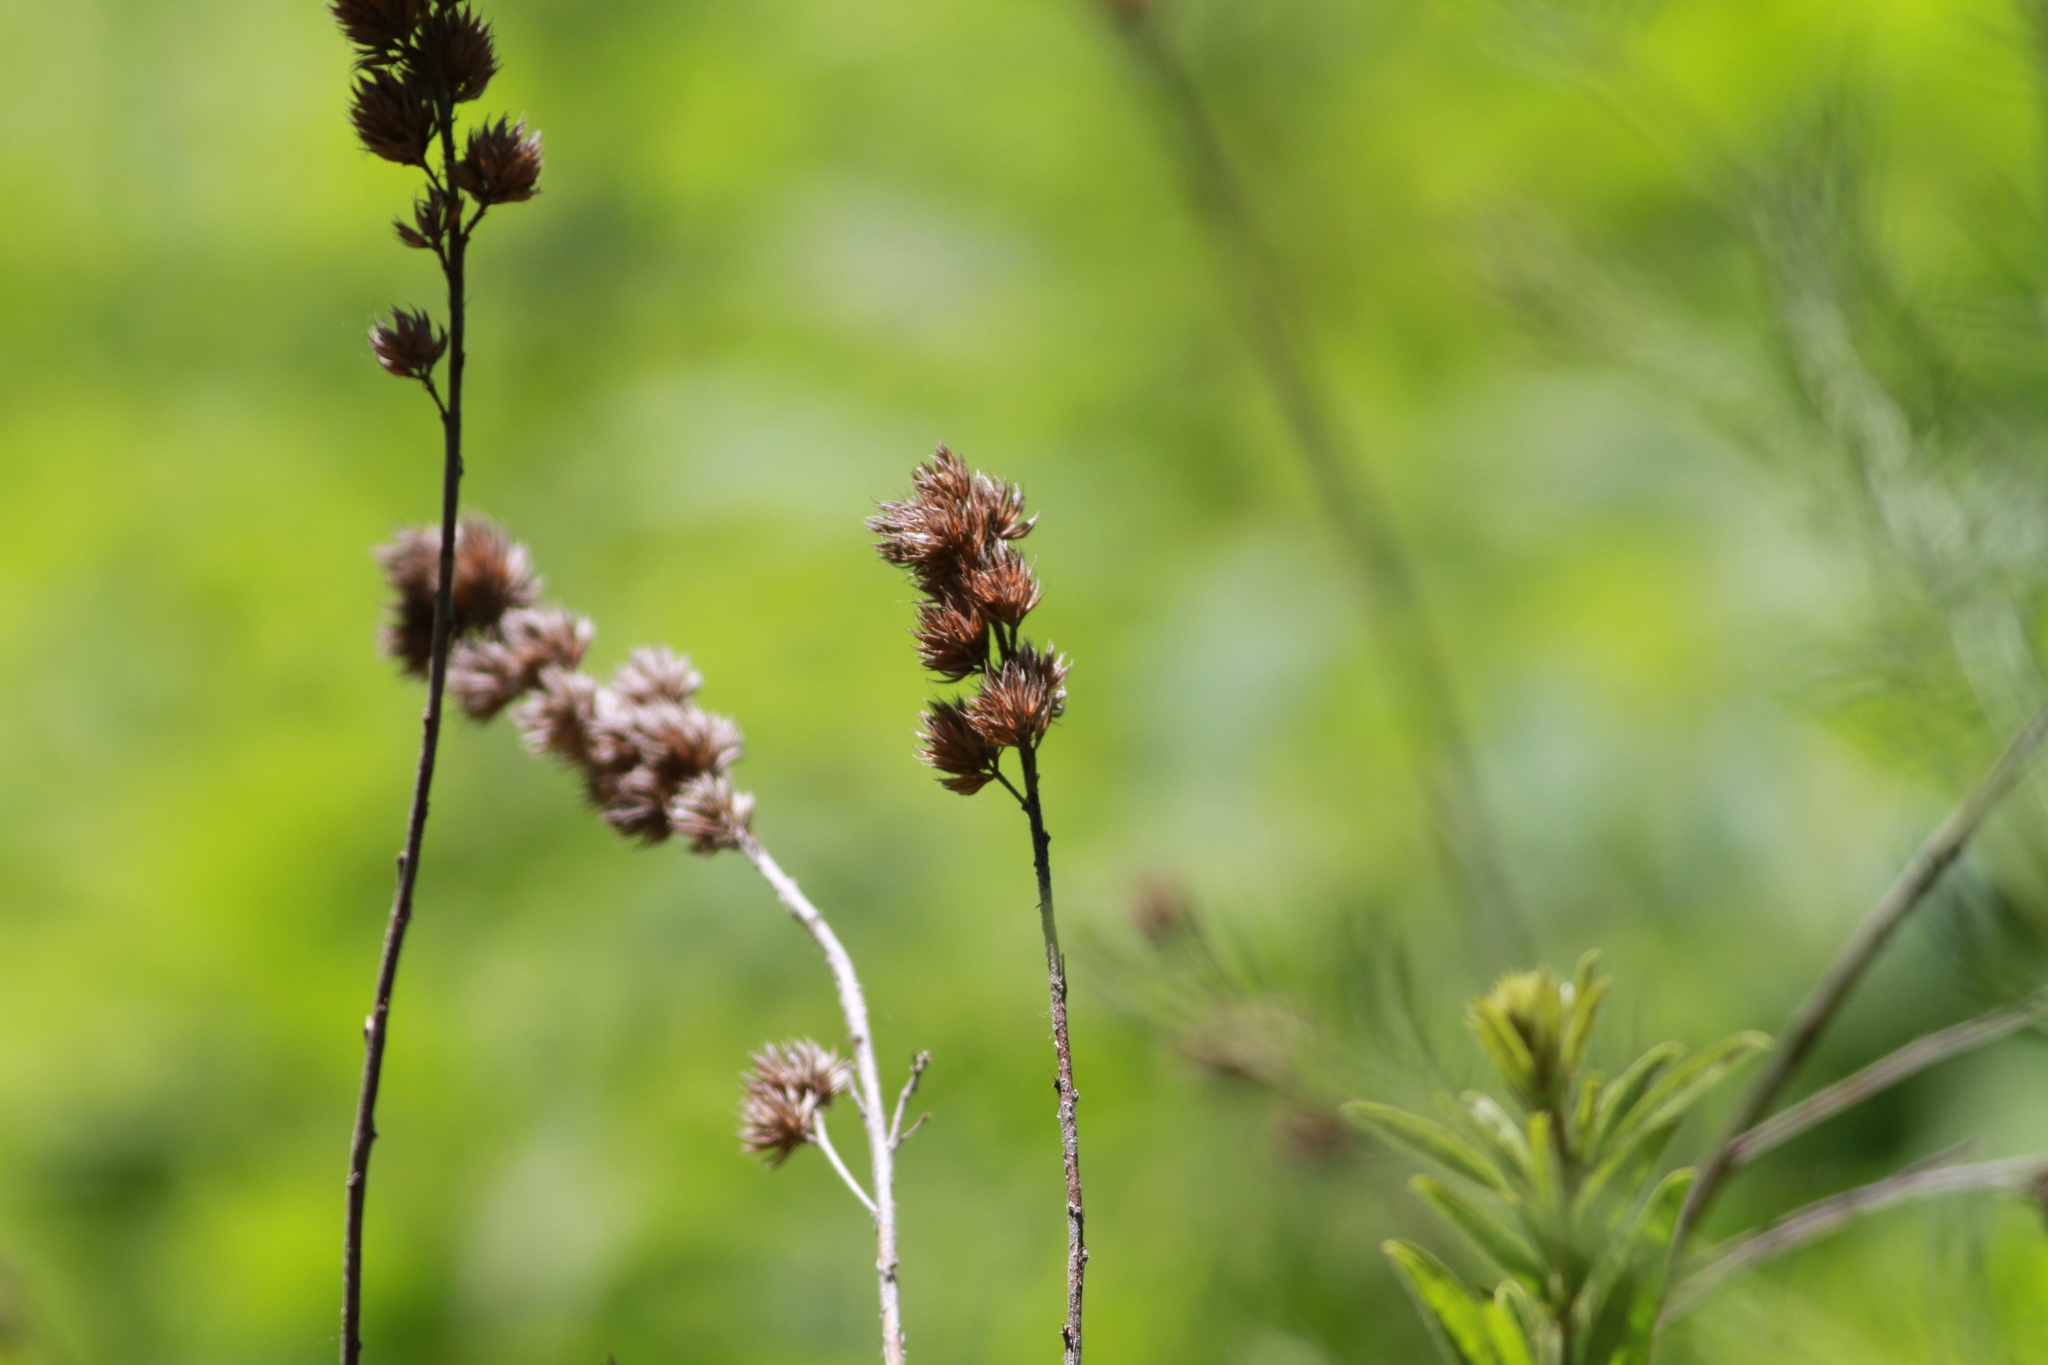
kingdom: Plantae
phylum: Tracheophyta
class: Magnoliopsida
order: Fabales
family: Fabaceae
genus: Lespedeza
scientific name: Lespedeza capitata
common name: Dusty clover
